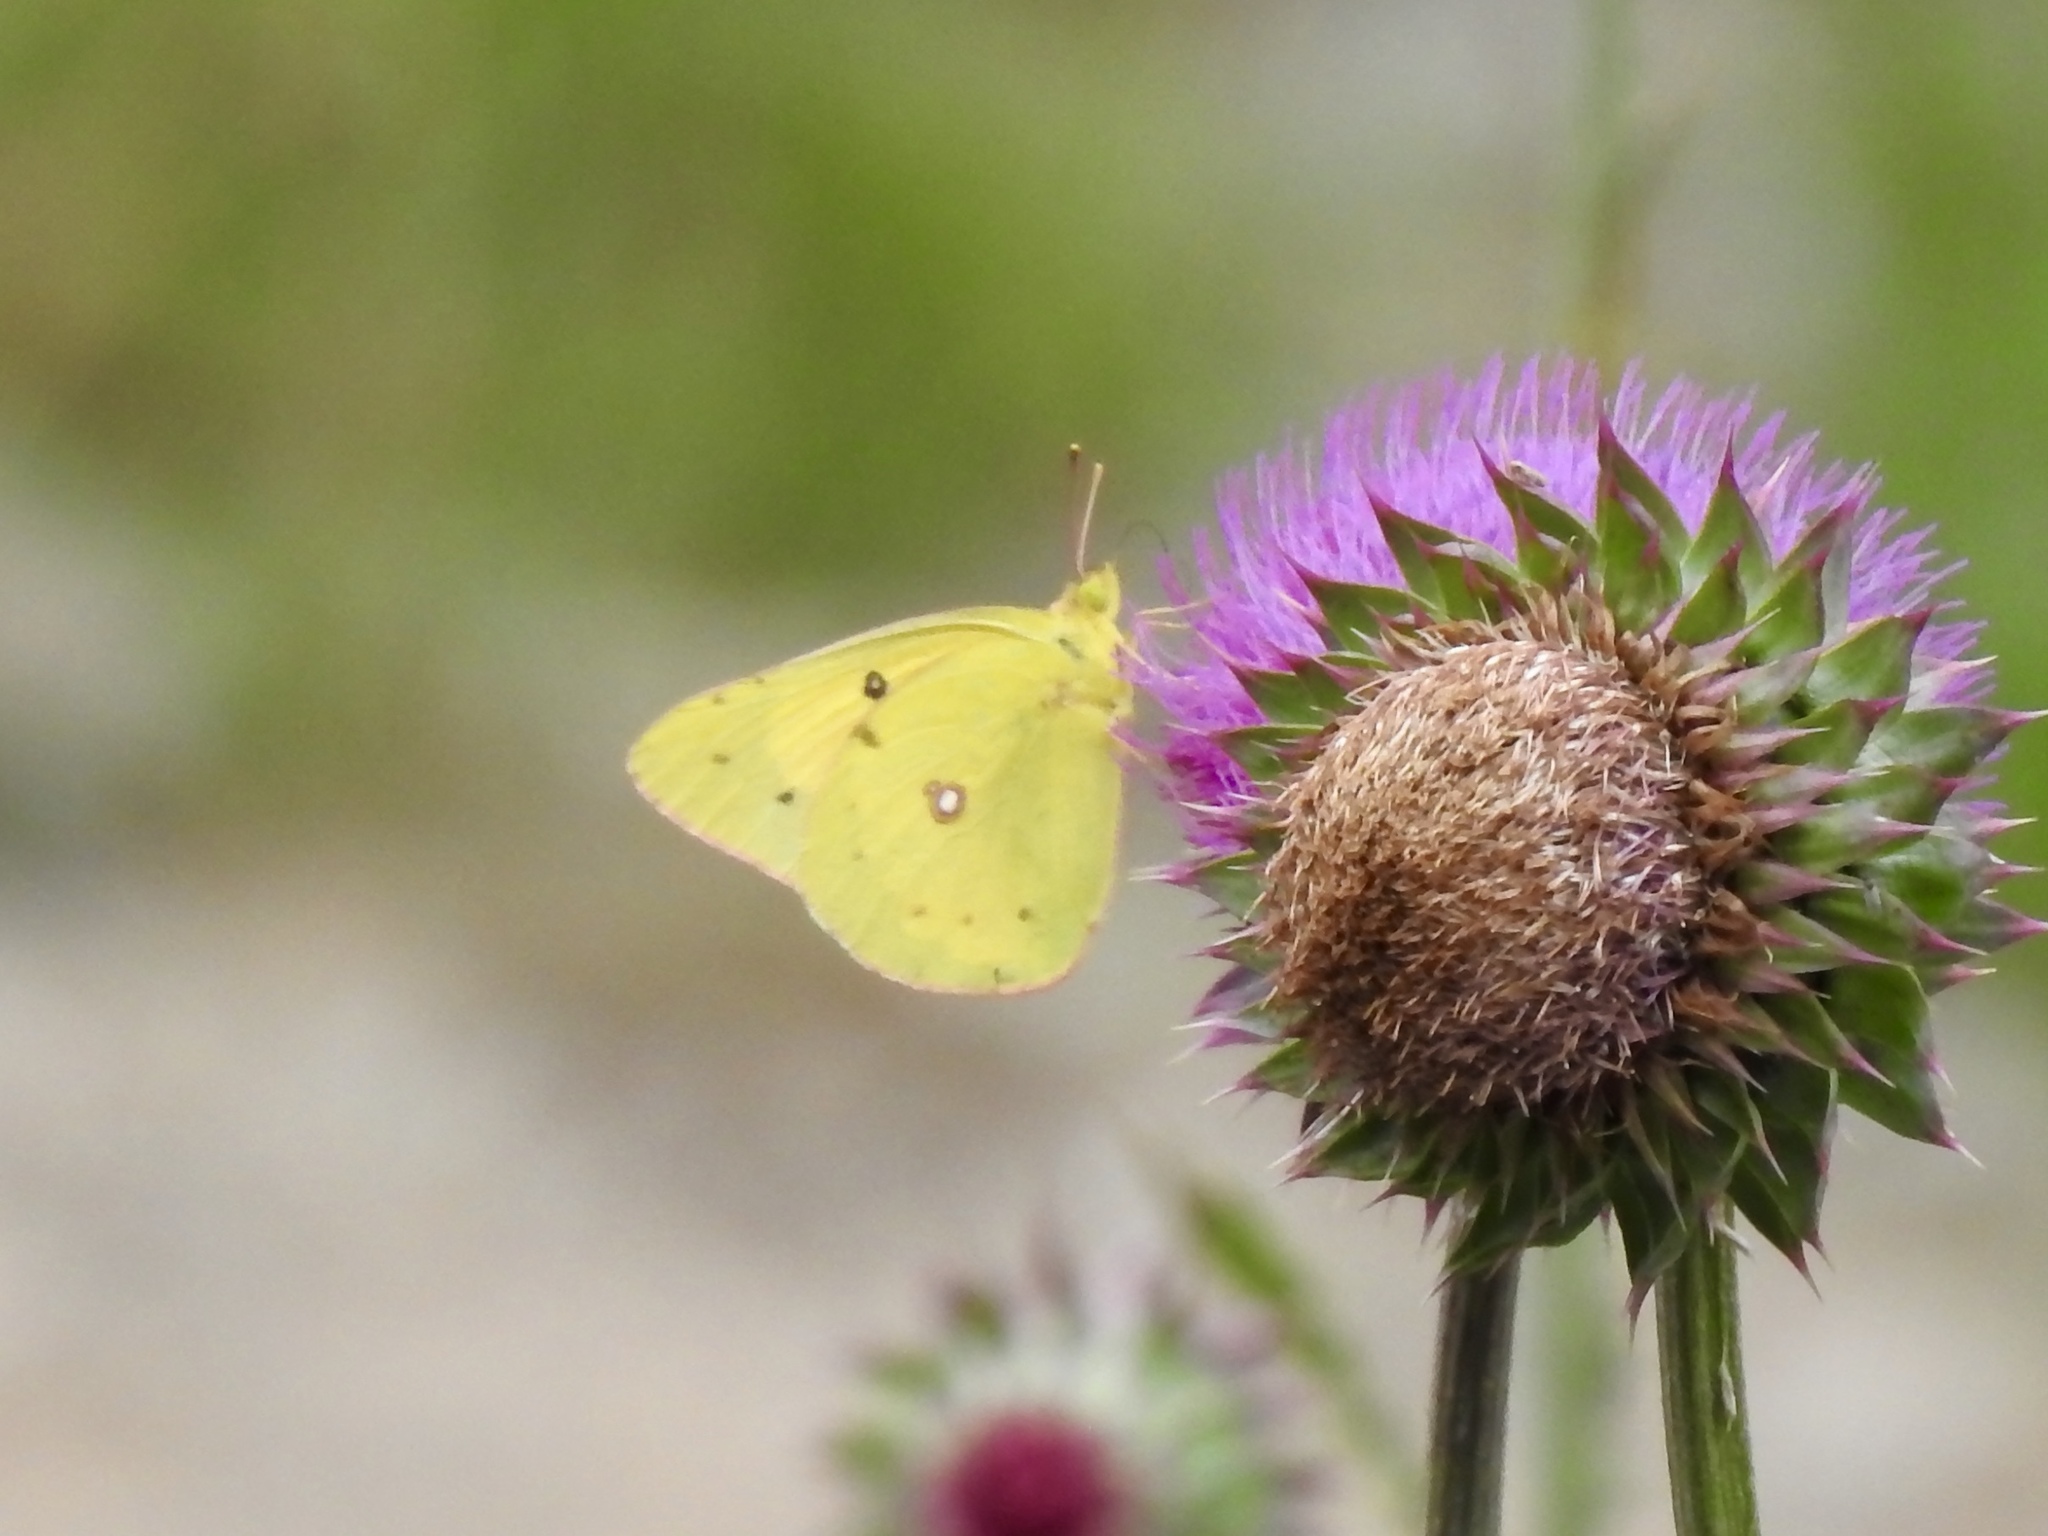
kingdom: Animalia
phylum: Arthropoda
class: Insecta
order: Lepidoptera
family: Pieridae
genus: Colias
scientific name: Colias eurytheme
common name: Alfalfa butterfly
